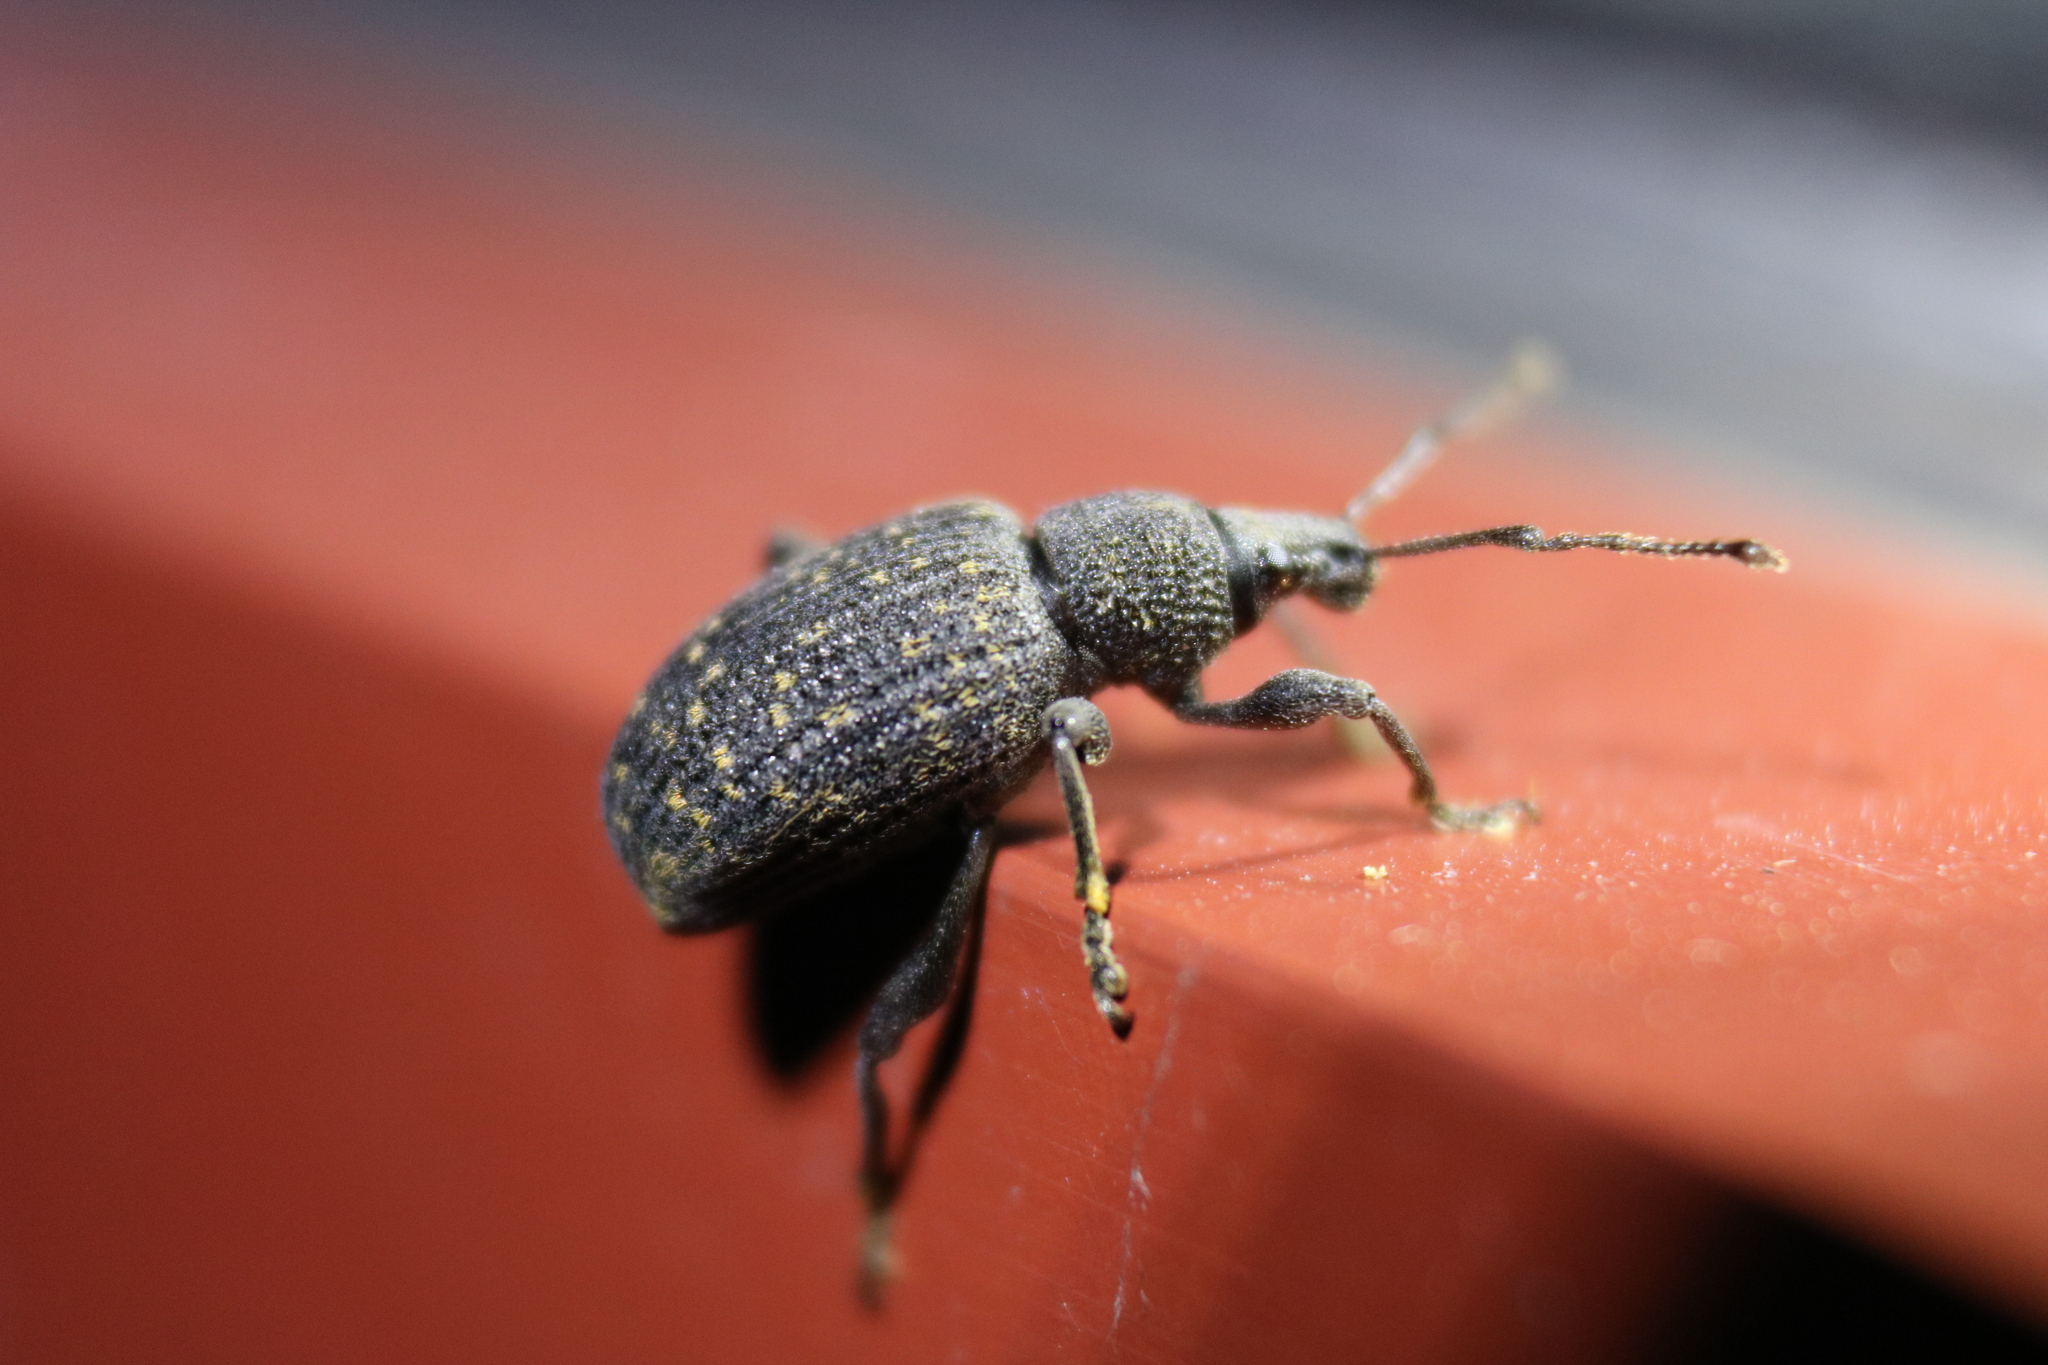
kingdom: Animalia
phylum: Arthropoda
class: Insecta
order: Coleoptera
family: Curculionidae
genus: Otiorhynchus
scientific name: Otiorhynchus sulcatus
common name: Black vine weevil
